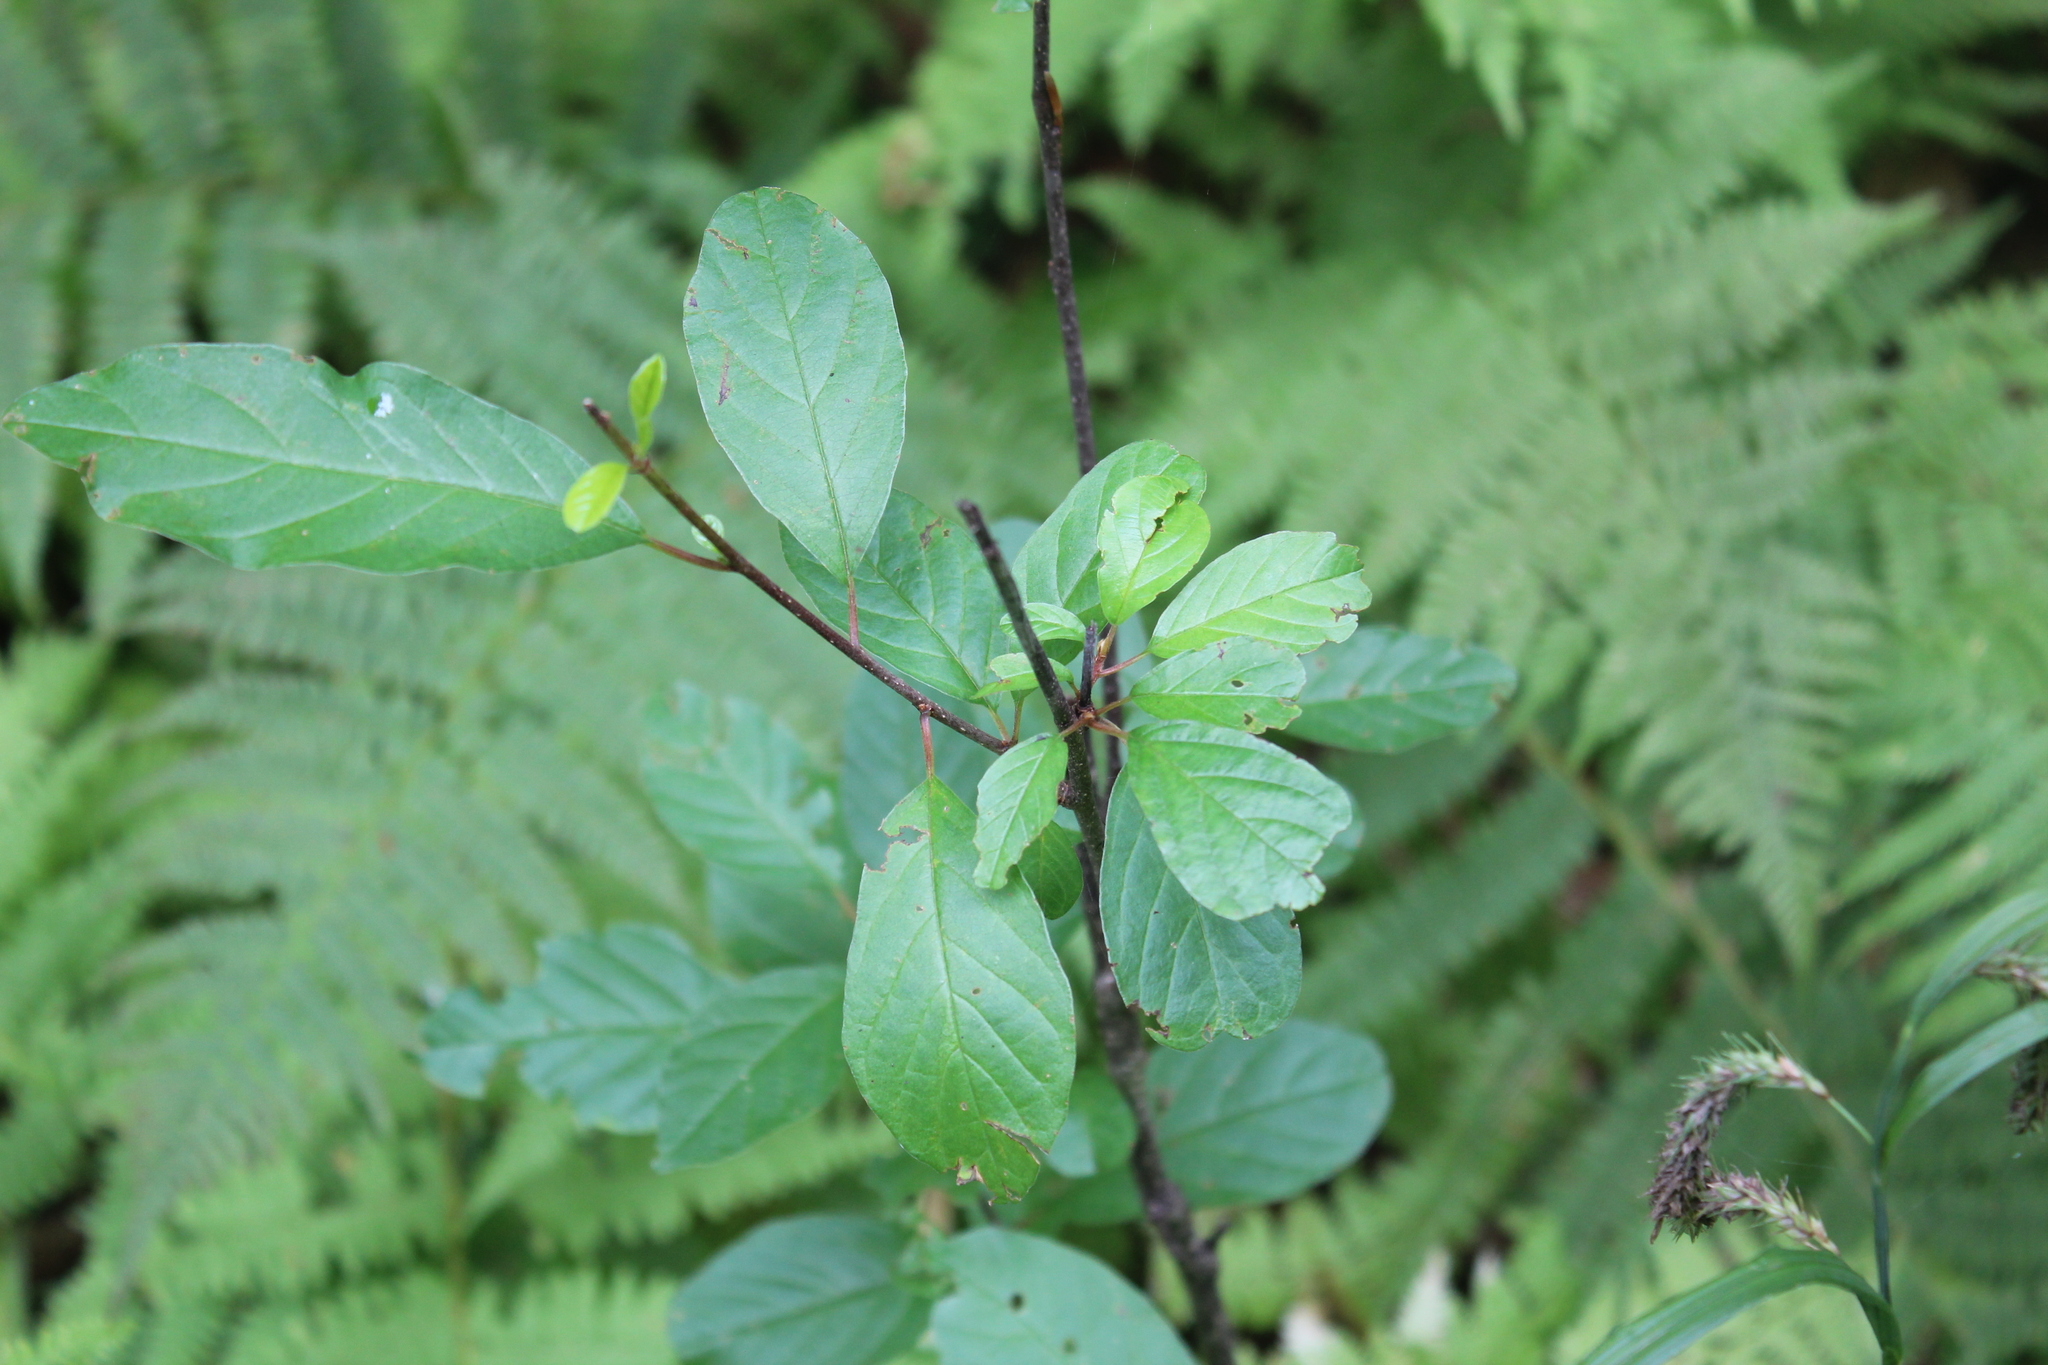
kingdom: Plantae
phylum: Tracheophyta
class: Magnoliopsida
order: Rosales
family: Rhamnaceae
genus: Frangula
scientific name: Frangula alnus
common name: Alder buckthorn
